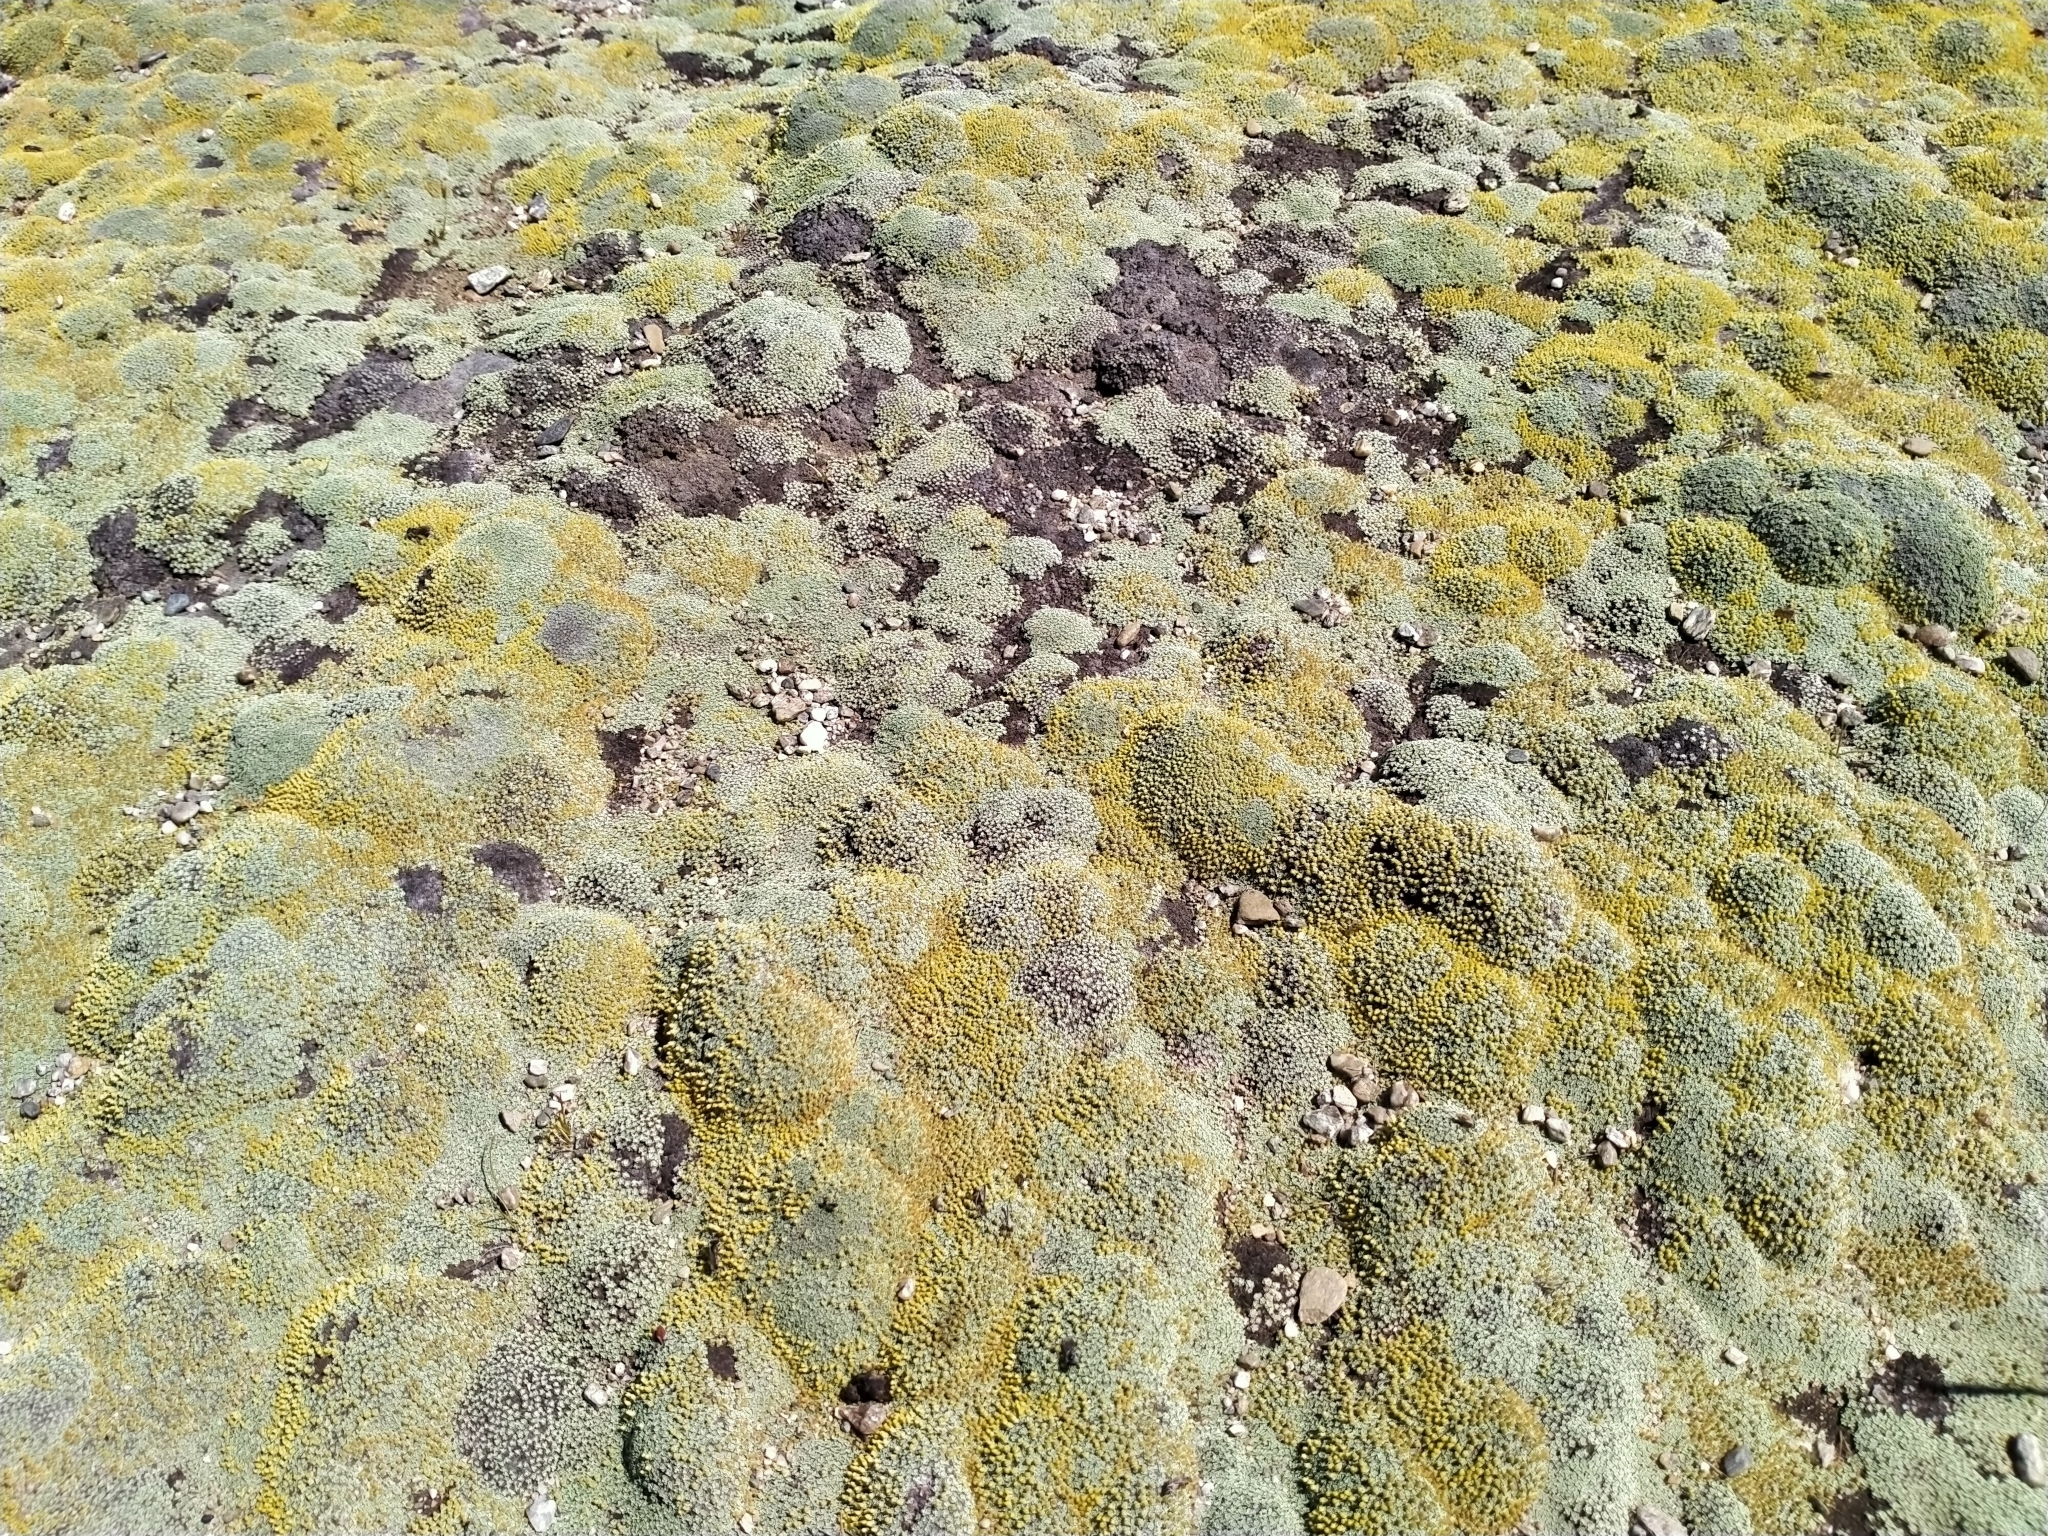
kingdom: Plantae
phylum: Tracheophyta
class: Magnoliopsida
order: Asterales
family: Asteraceae
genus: Raoulia
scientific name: Raoulia australis
